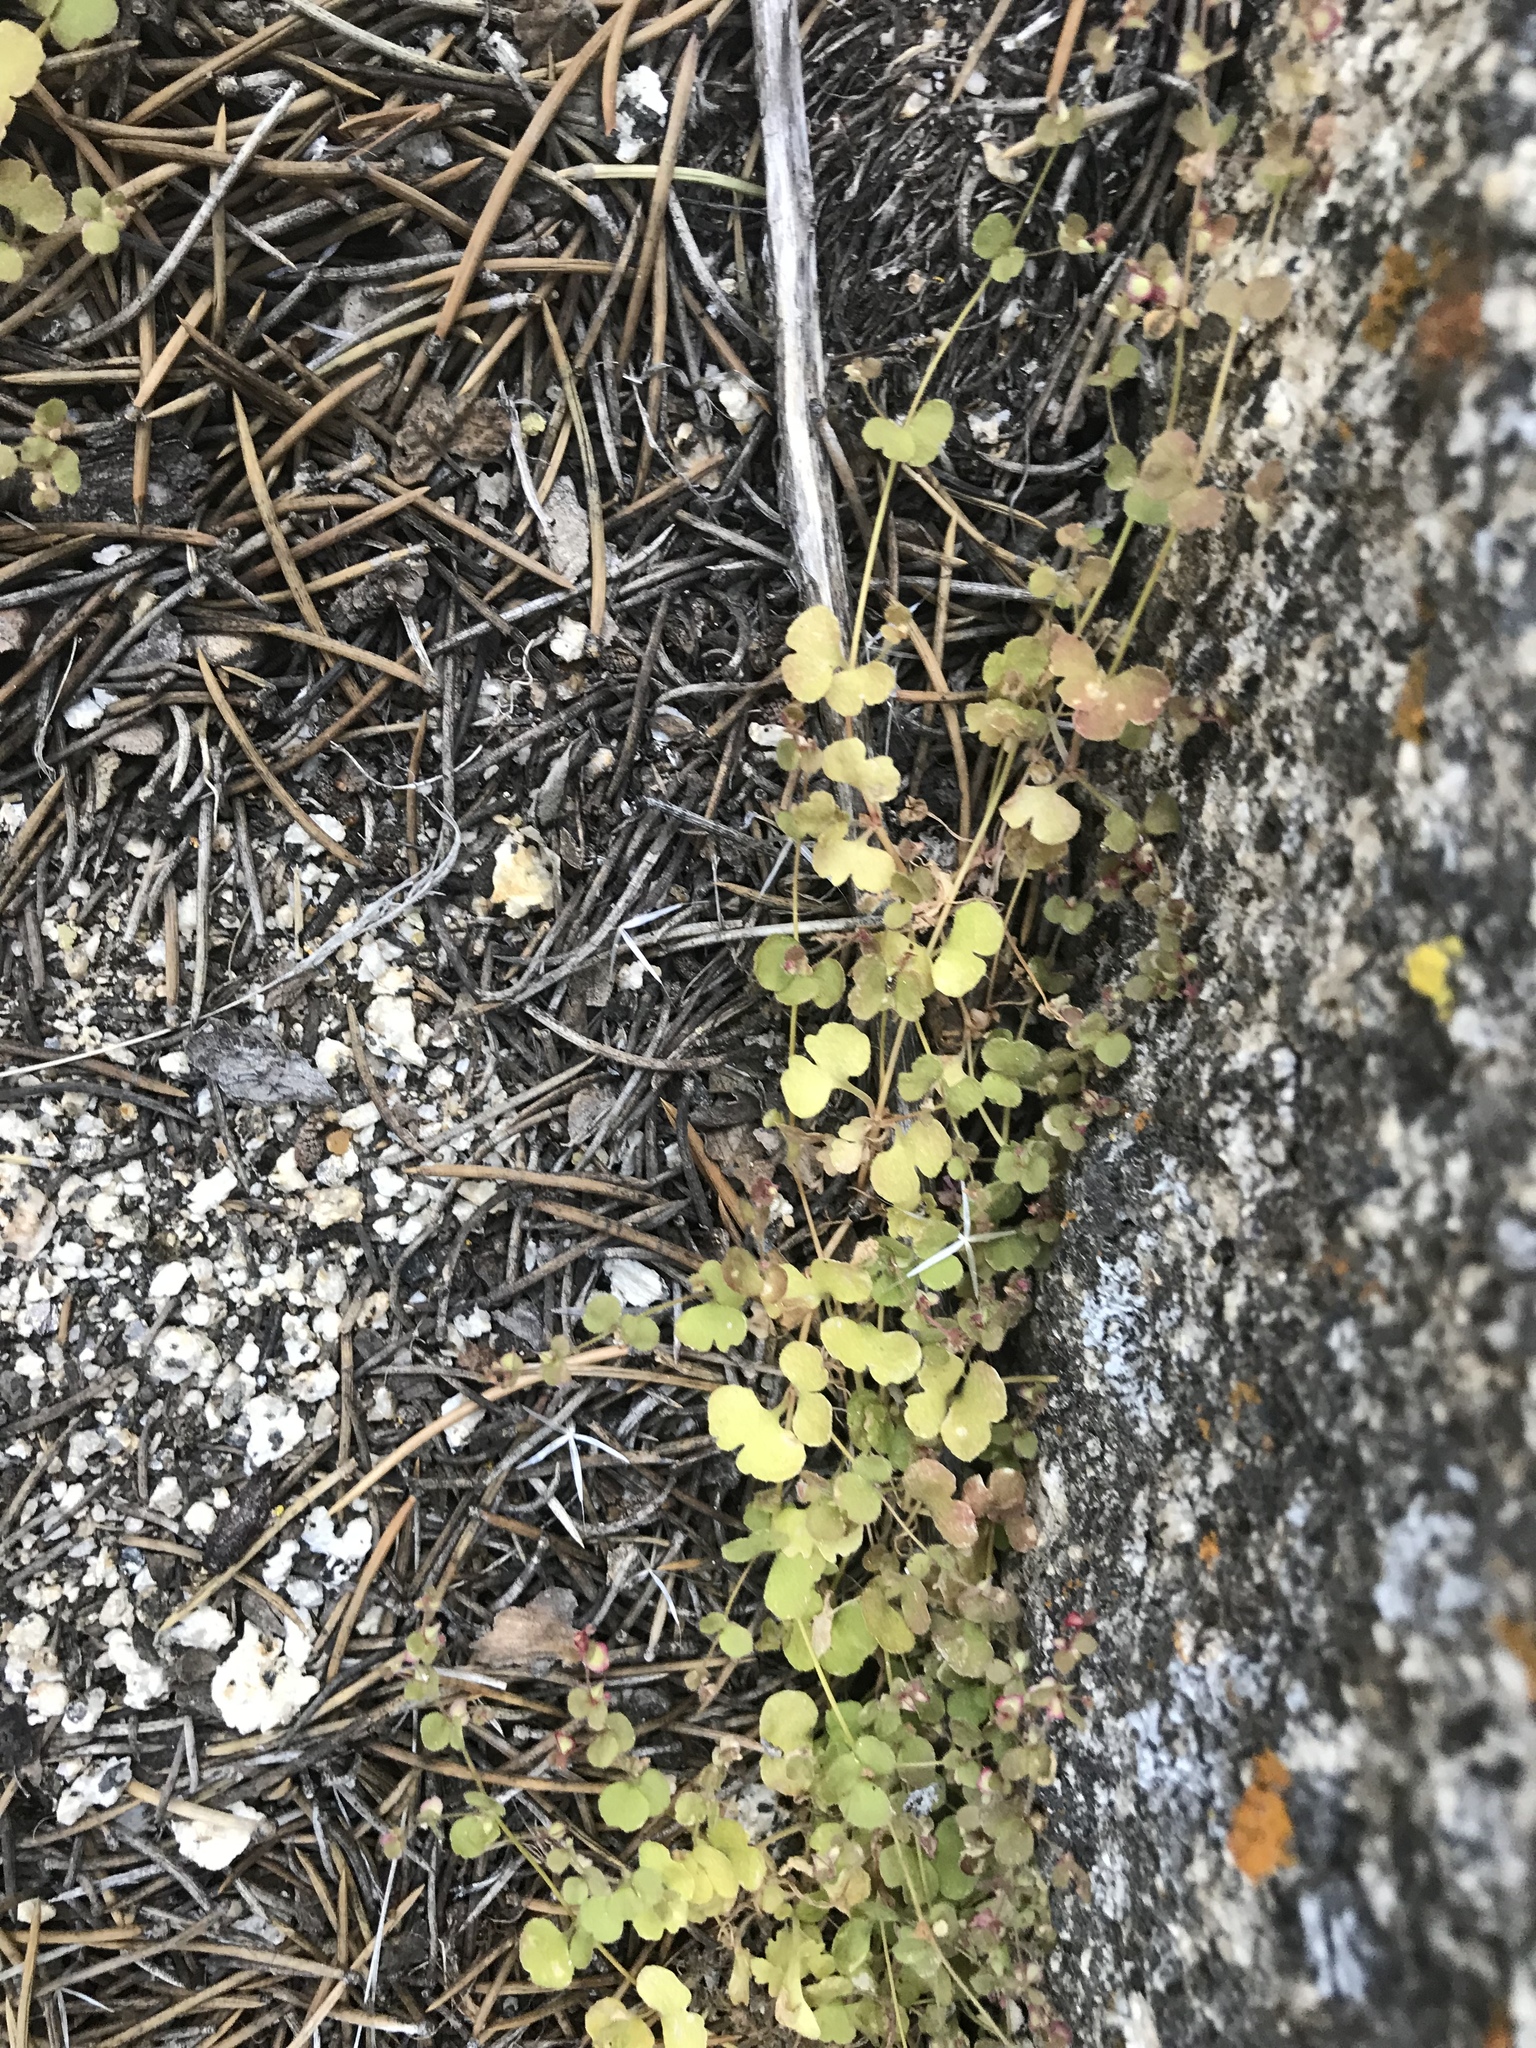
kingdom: Plantae
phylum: Tracheophyta
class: Magnoliopsida
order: Caryophyllales
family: Polygonaceae
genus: Pterostegia
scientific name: Pterostegia drymarioides
